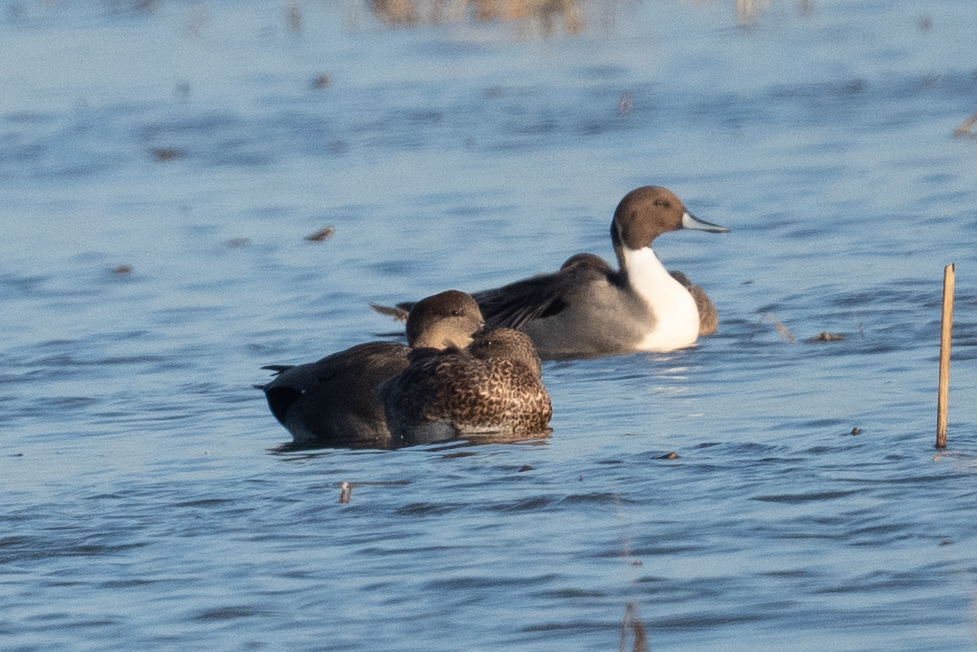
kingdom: Animalia
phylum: Chordata
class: Aves
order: Anseriformes
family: Anatidae
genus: Anas
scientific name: Anas acuta
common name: Northern pintail
